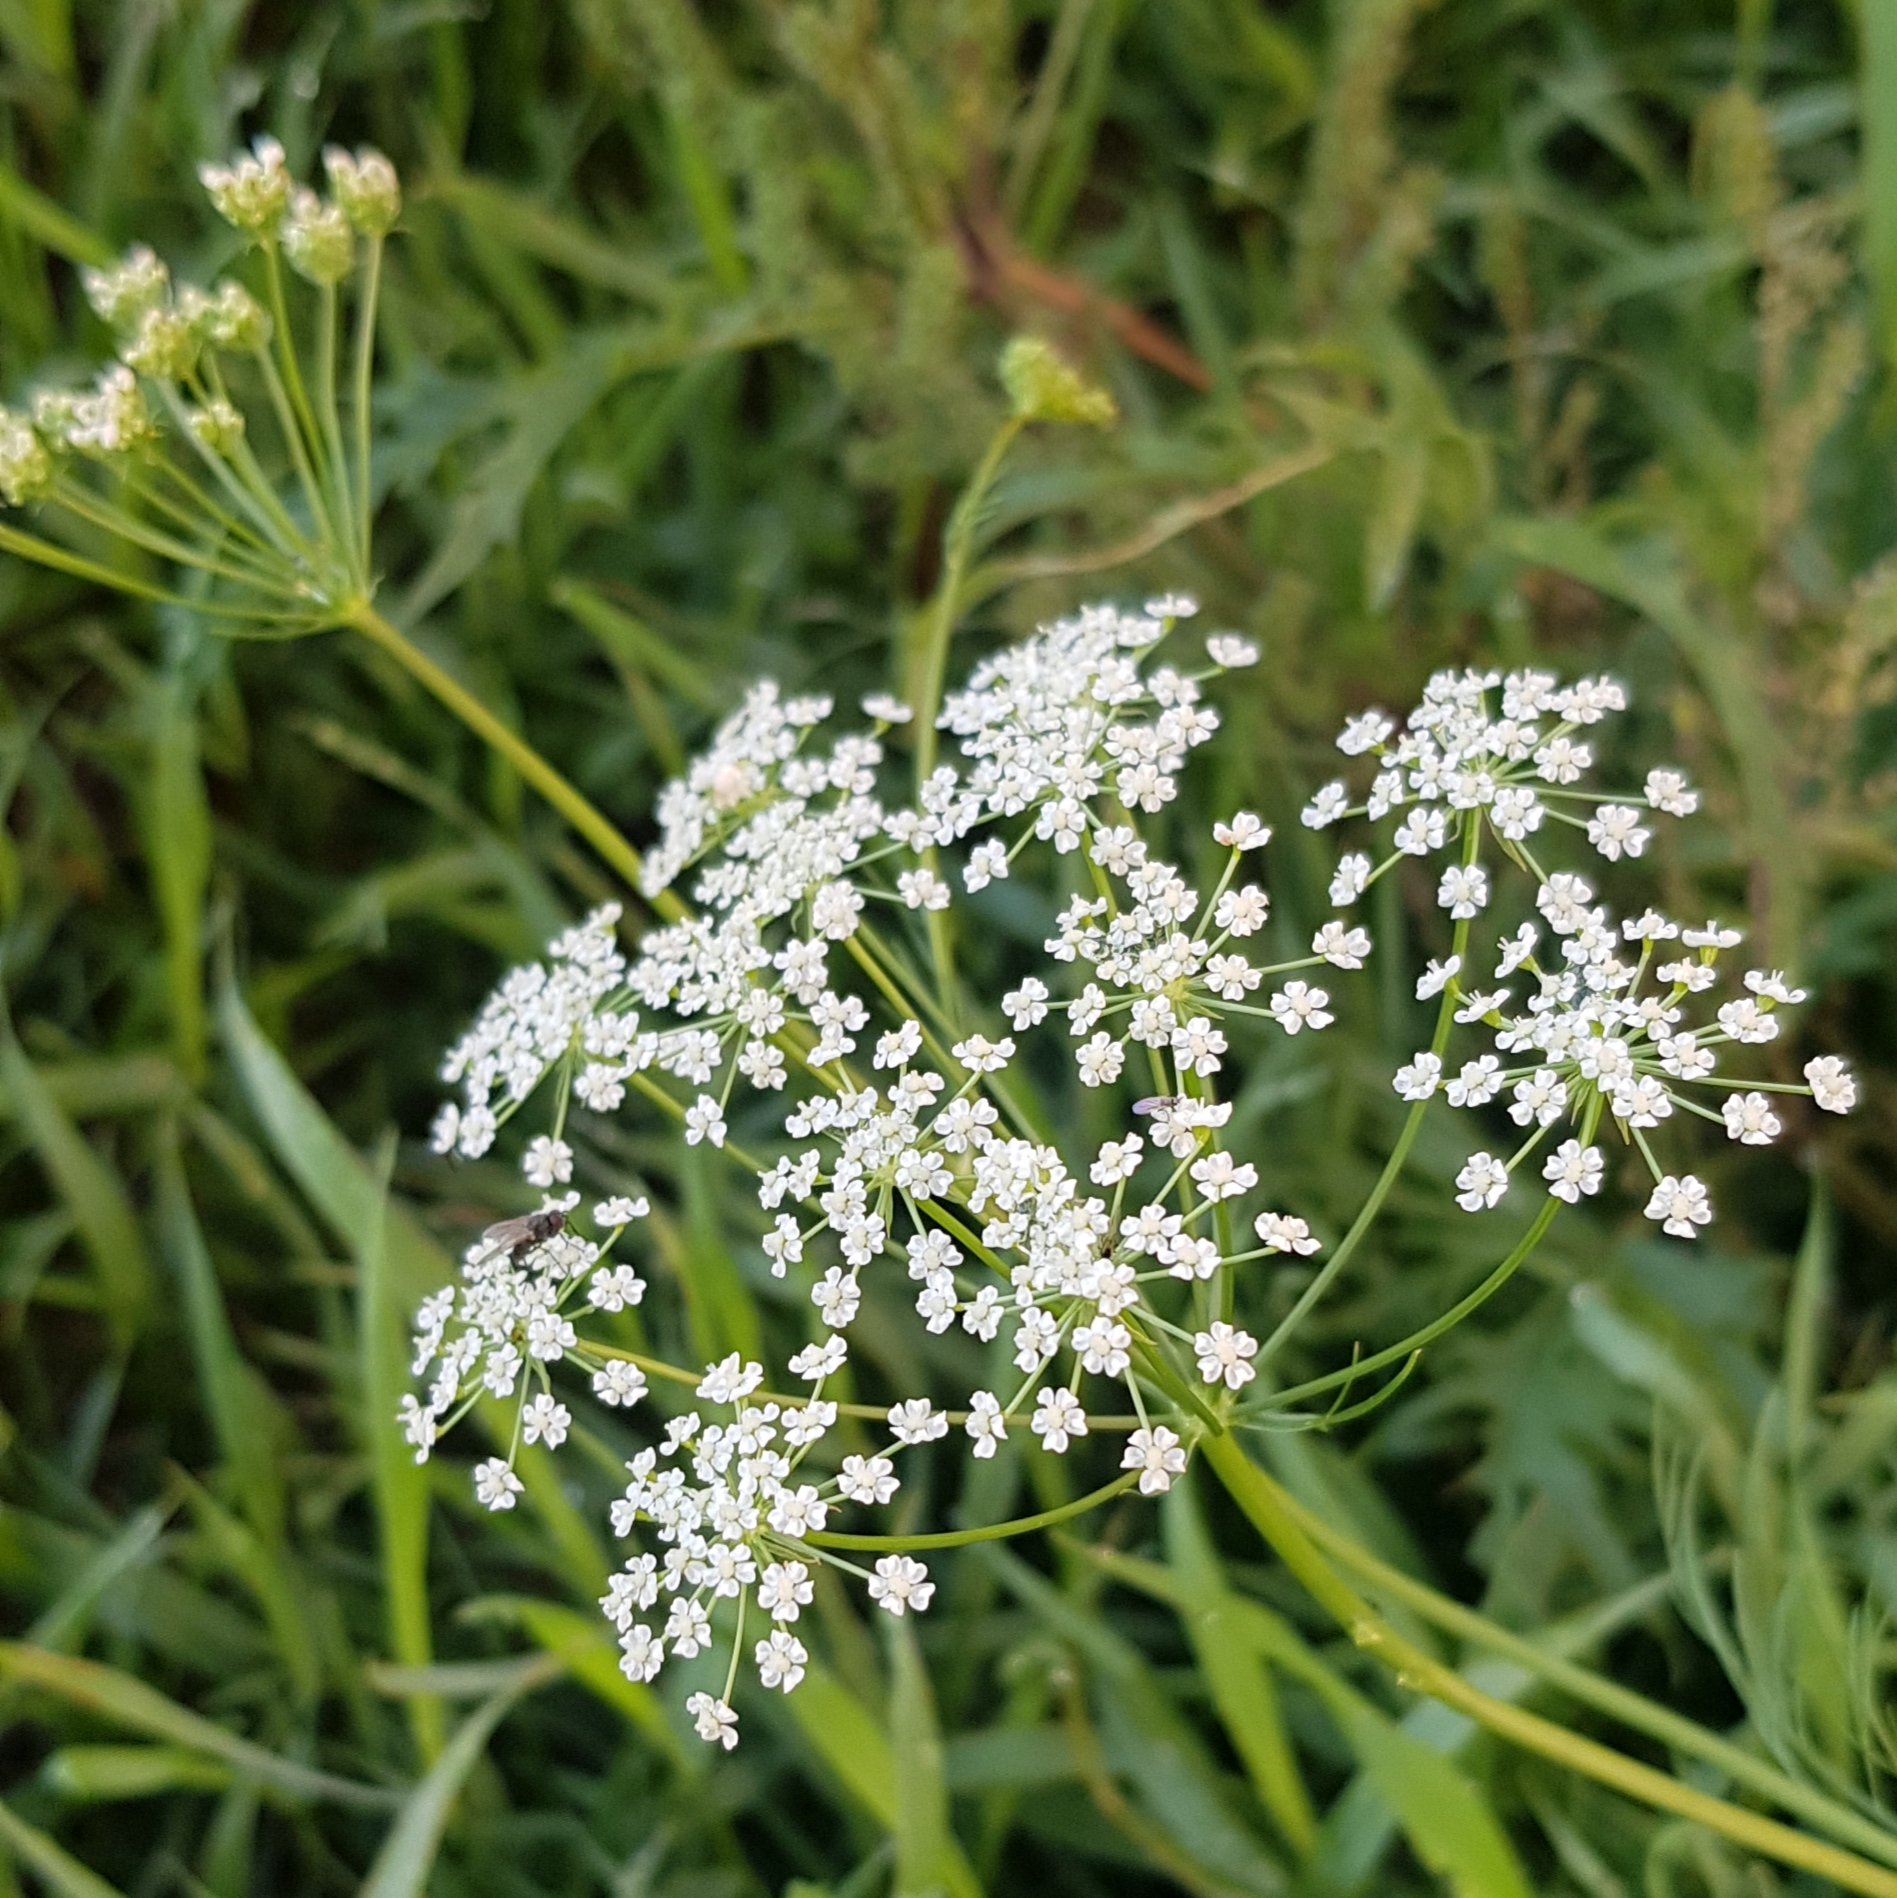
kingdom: Plantae
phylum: Tracheophyta
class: Magnoliopsida
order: Apiales
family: Apiaceae
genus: Carum
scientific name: Carum buriaticum
